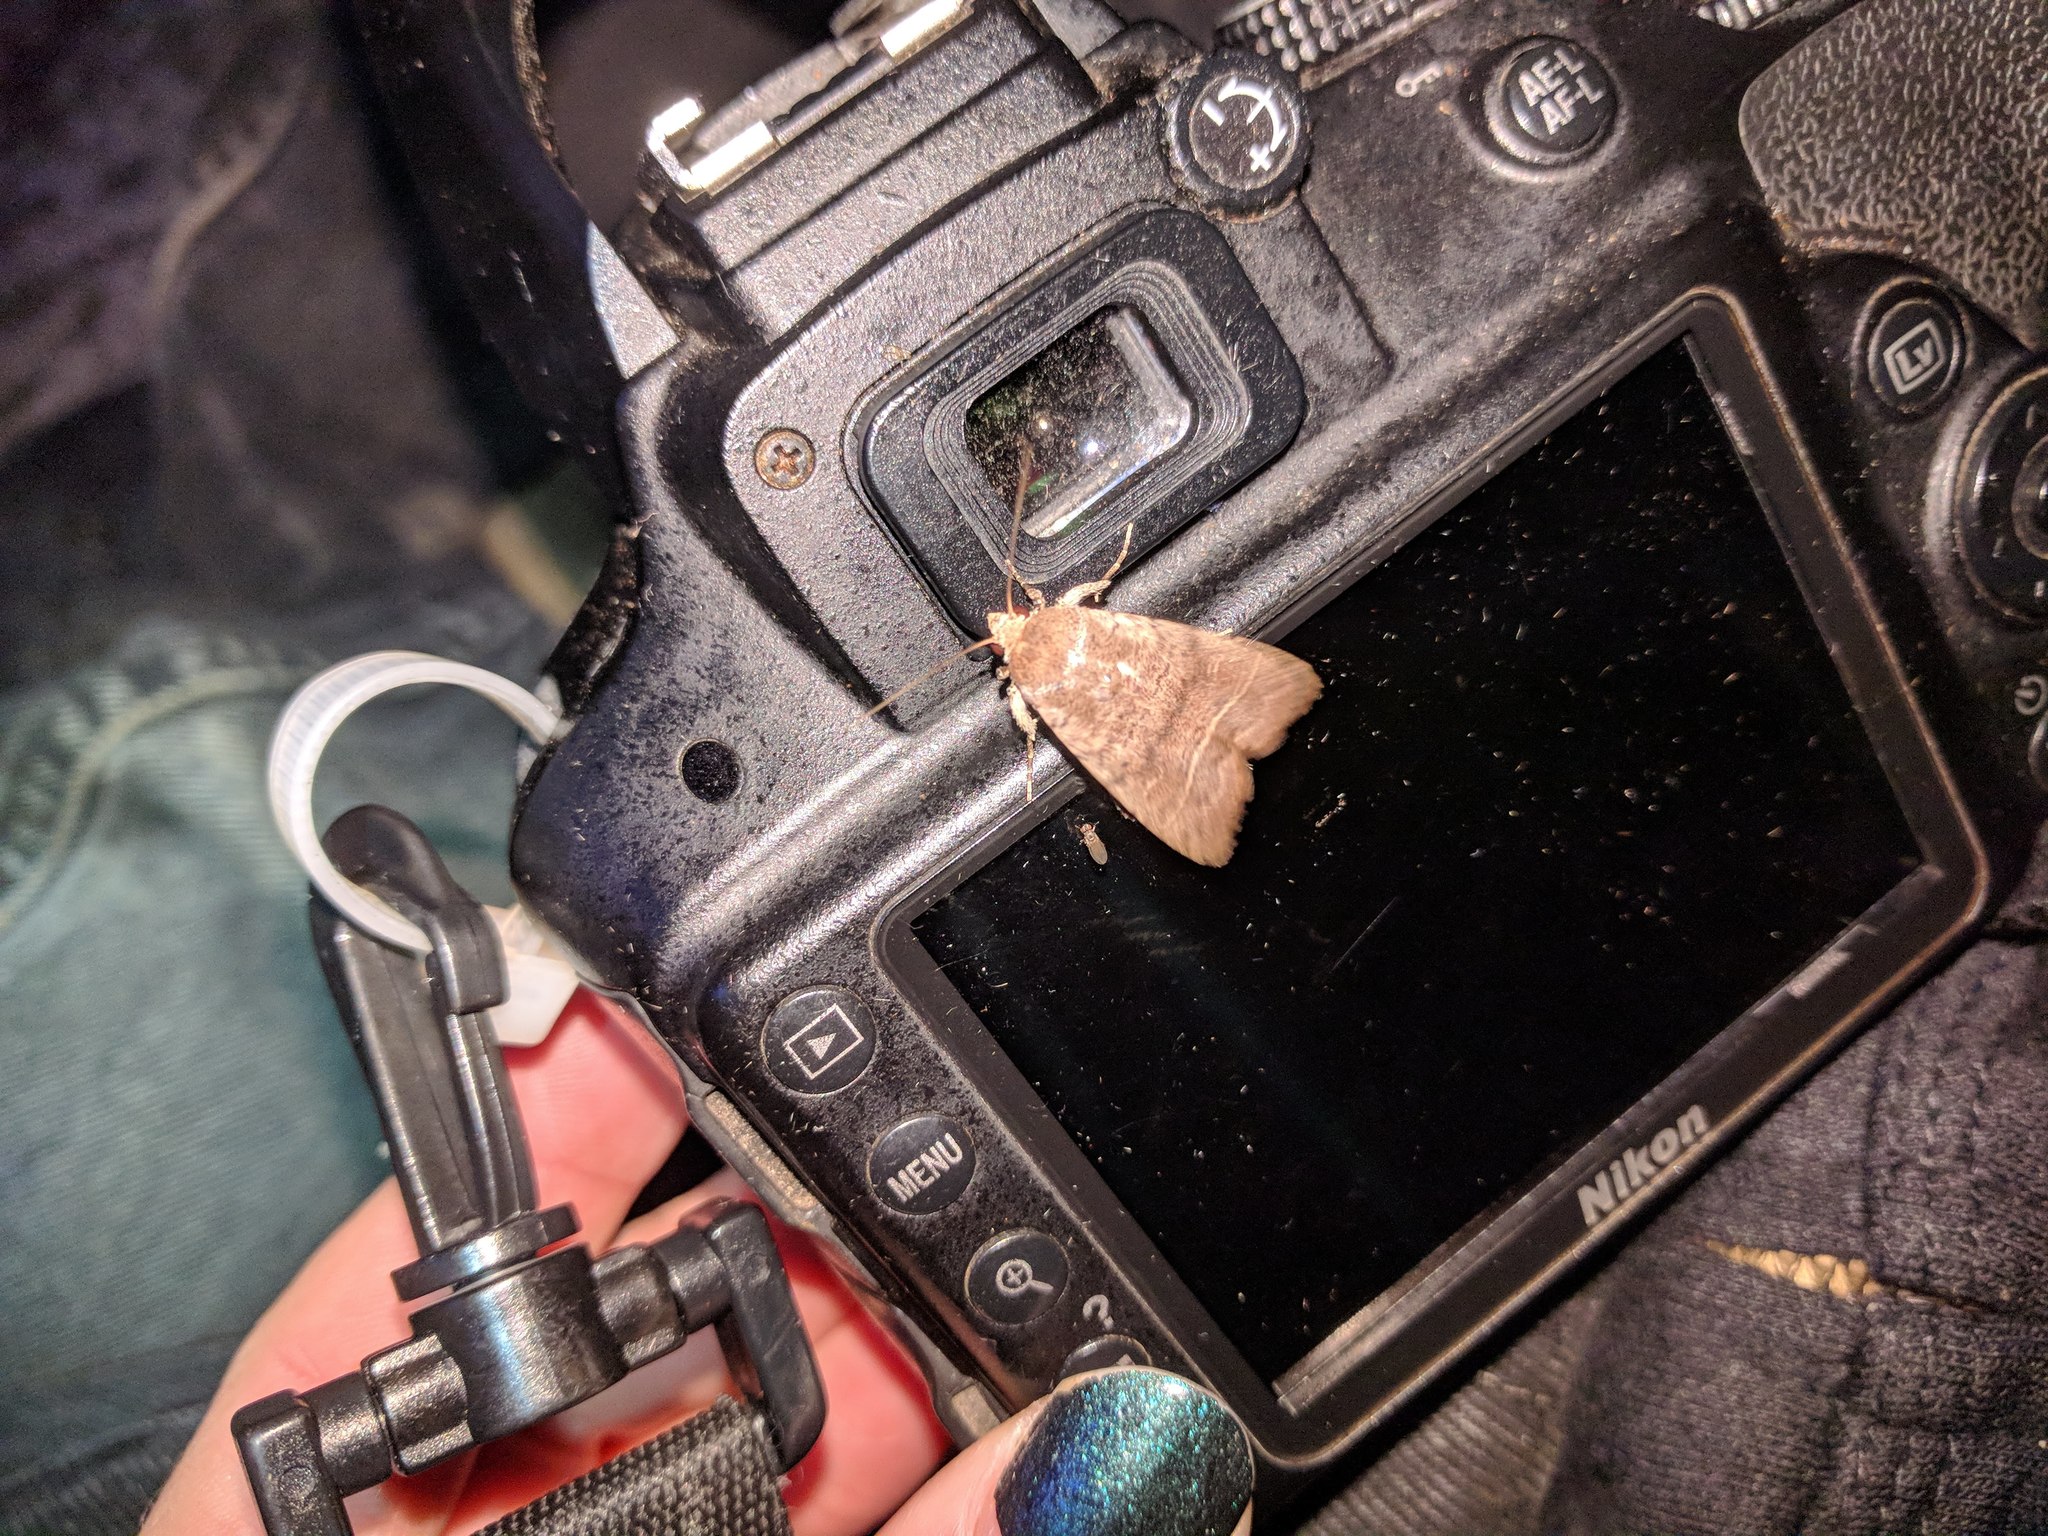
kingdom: Animalia
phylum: Arthropoda
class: Insecta
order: Lepidoptera
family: Noctuidae
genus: Athetis
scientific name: Athetis thoracica
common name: Cutworm
